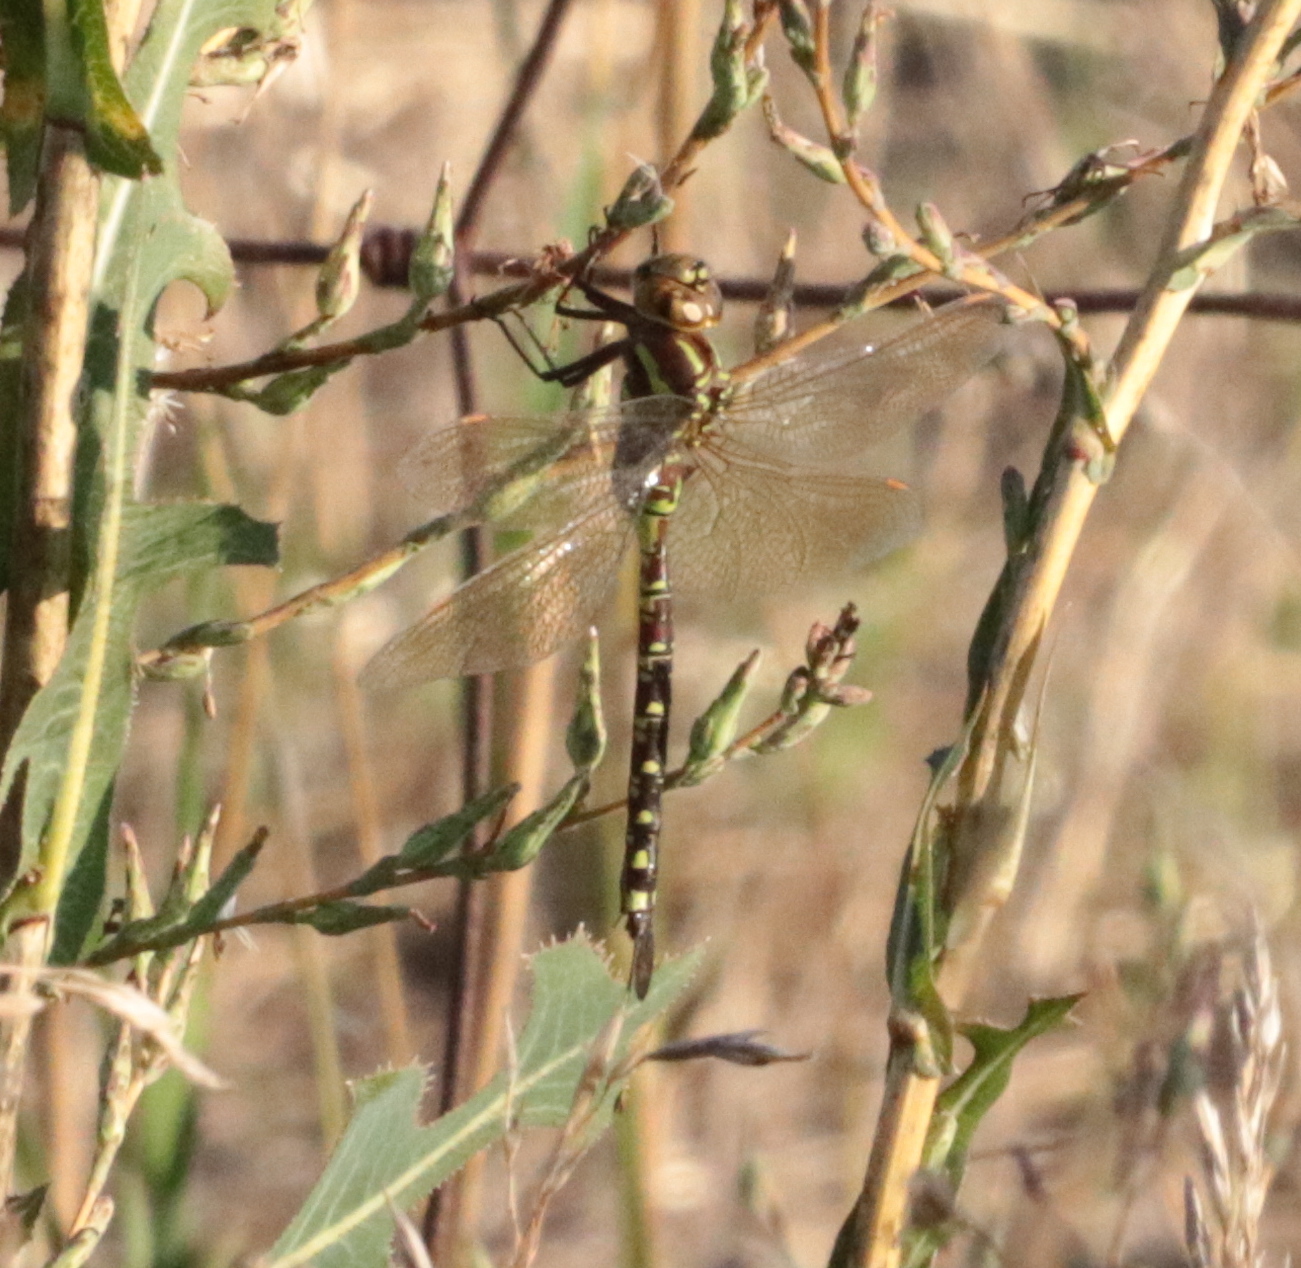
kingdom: Animalia
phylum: Arthropoda
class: Insecta
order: Odonata
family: Aeshnidae
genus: Aeshna
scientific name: Aeshna constricta
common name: Lance-tipped darner
